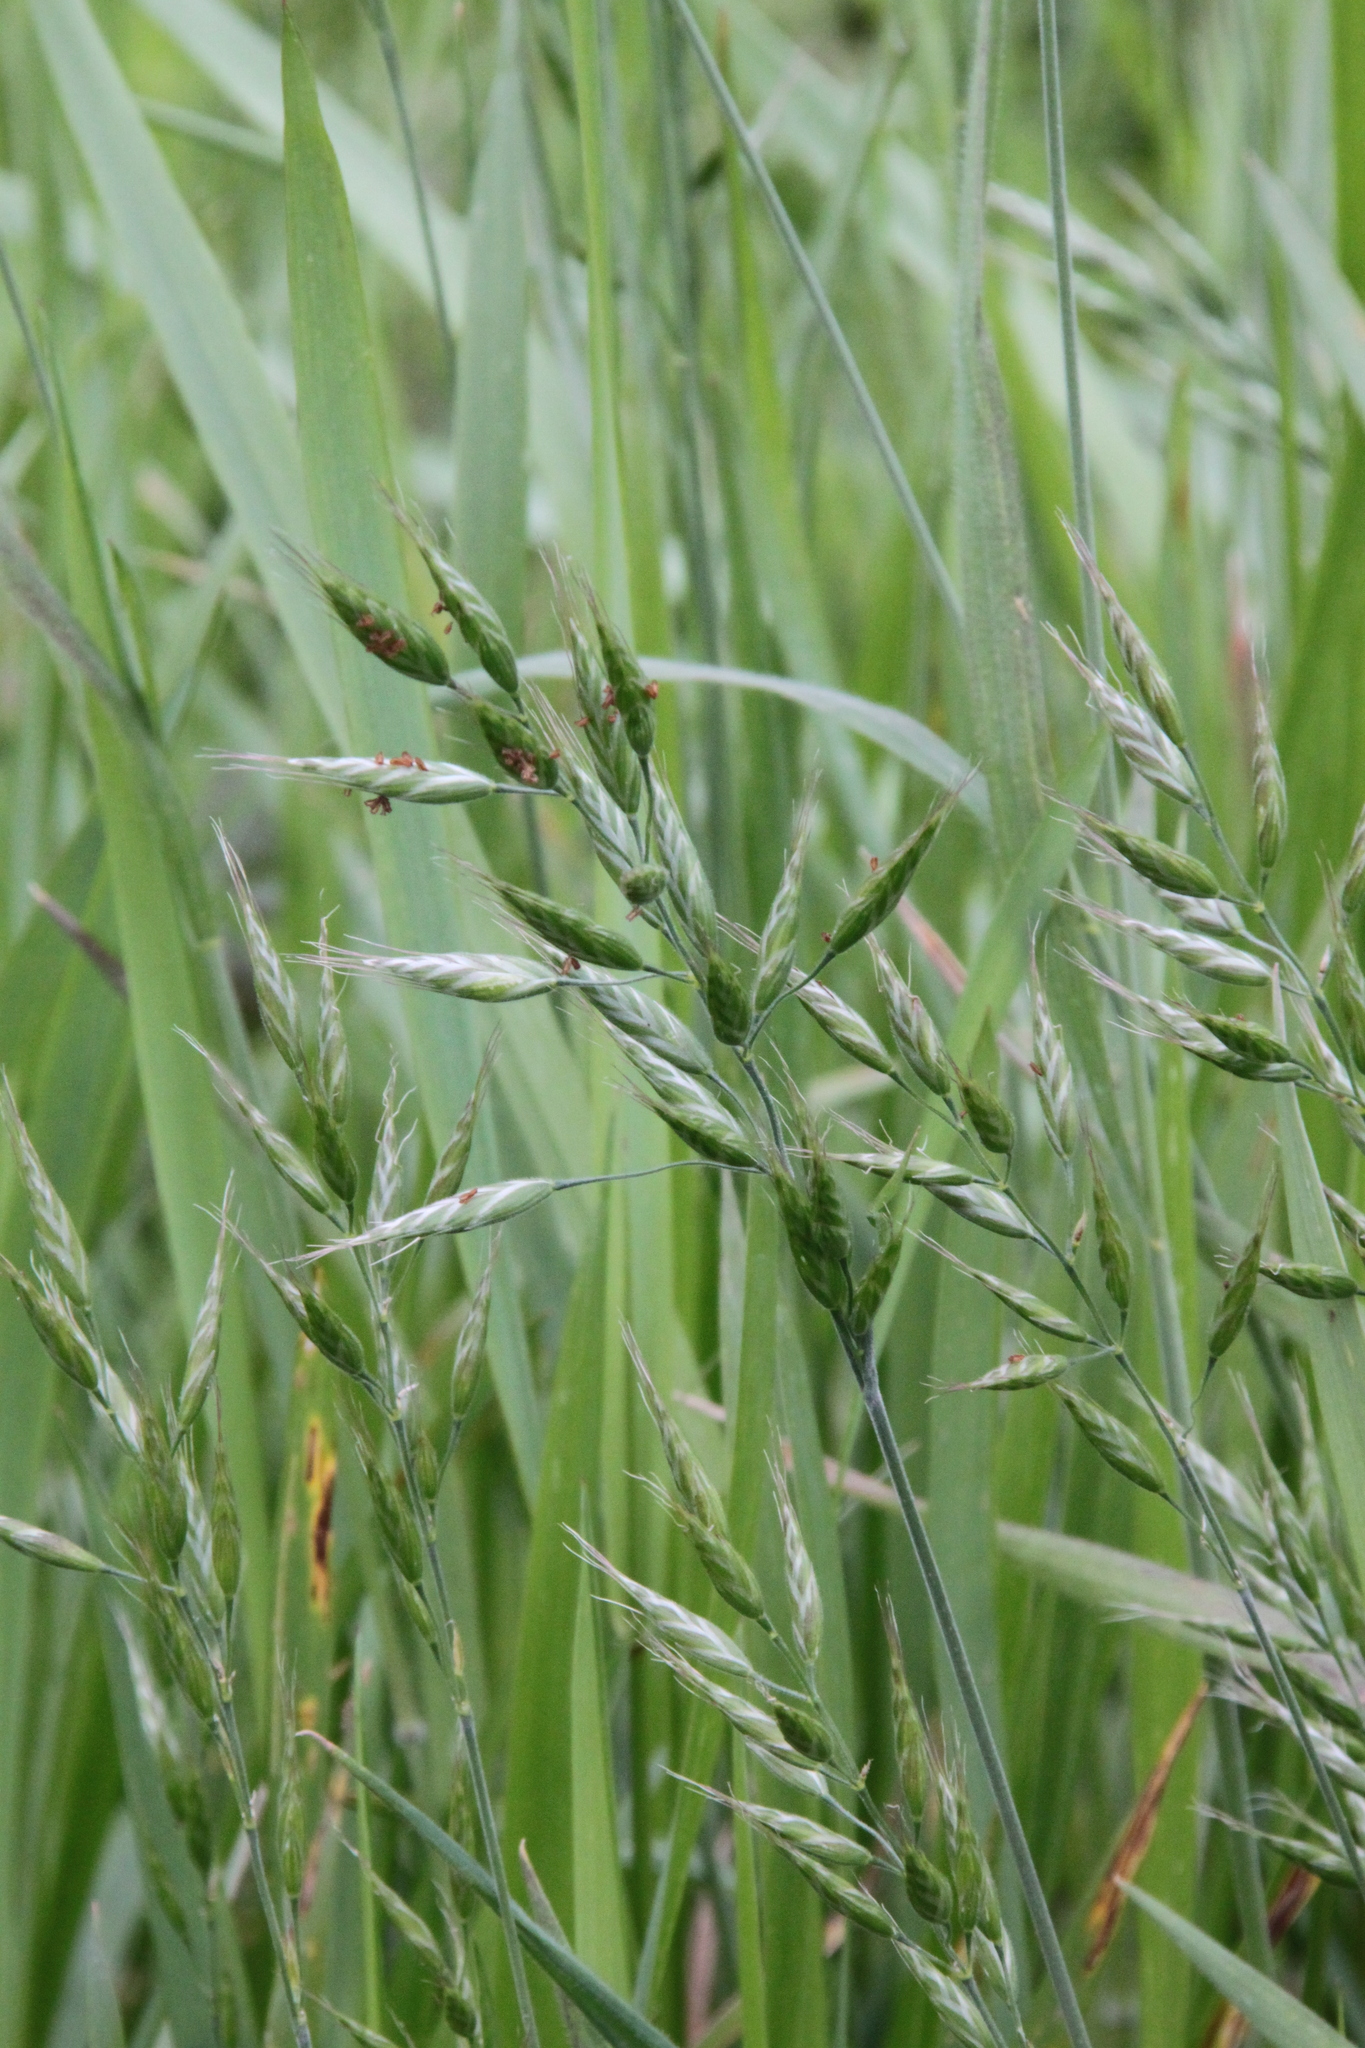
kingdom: Plantae
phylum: Tracheophyta
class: Liliopsida
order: Poales
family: Poaceae
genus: Bromus
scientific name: Bromus hordeaceus
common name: Soft brome
